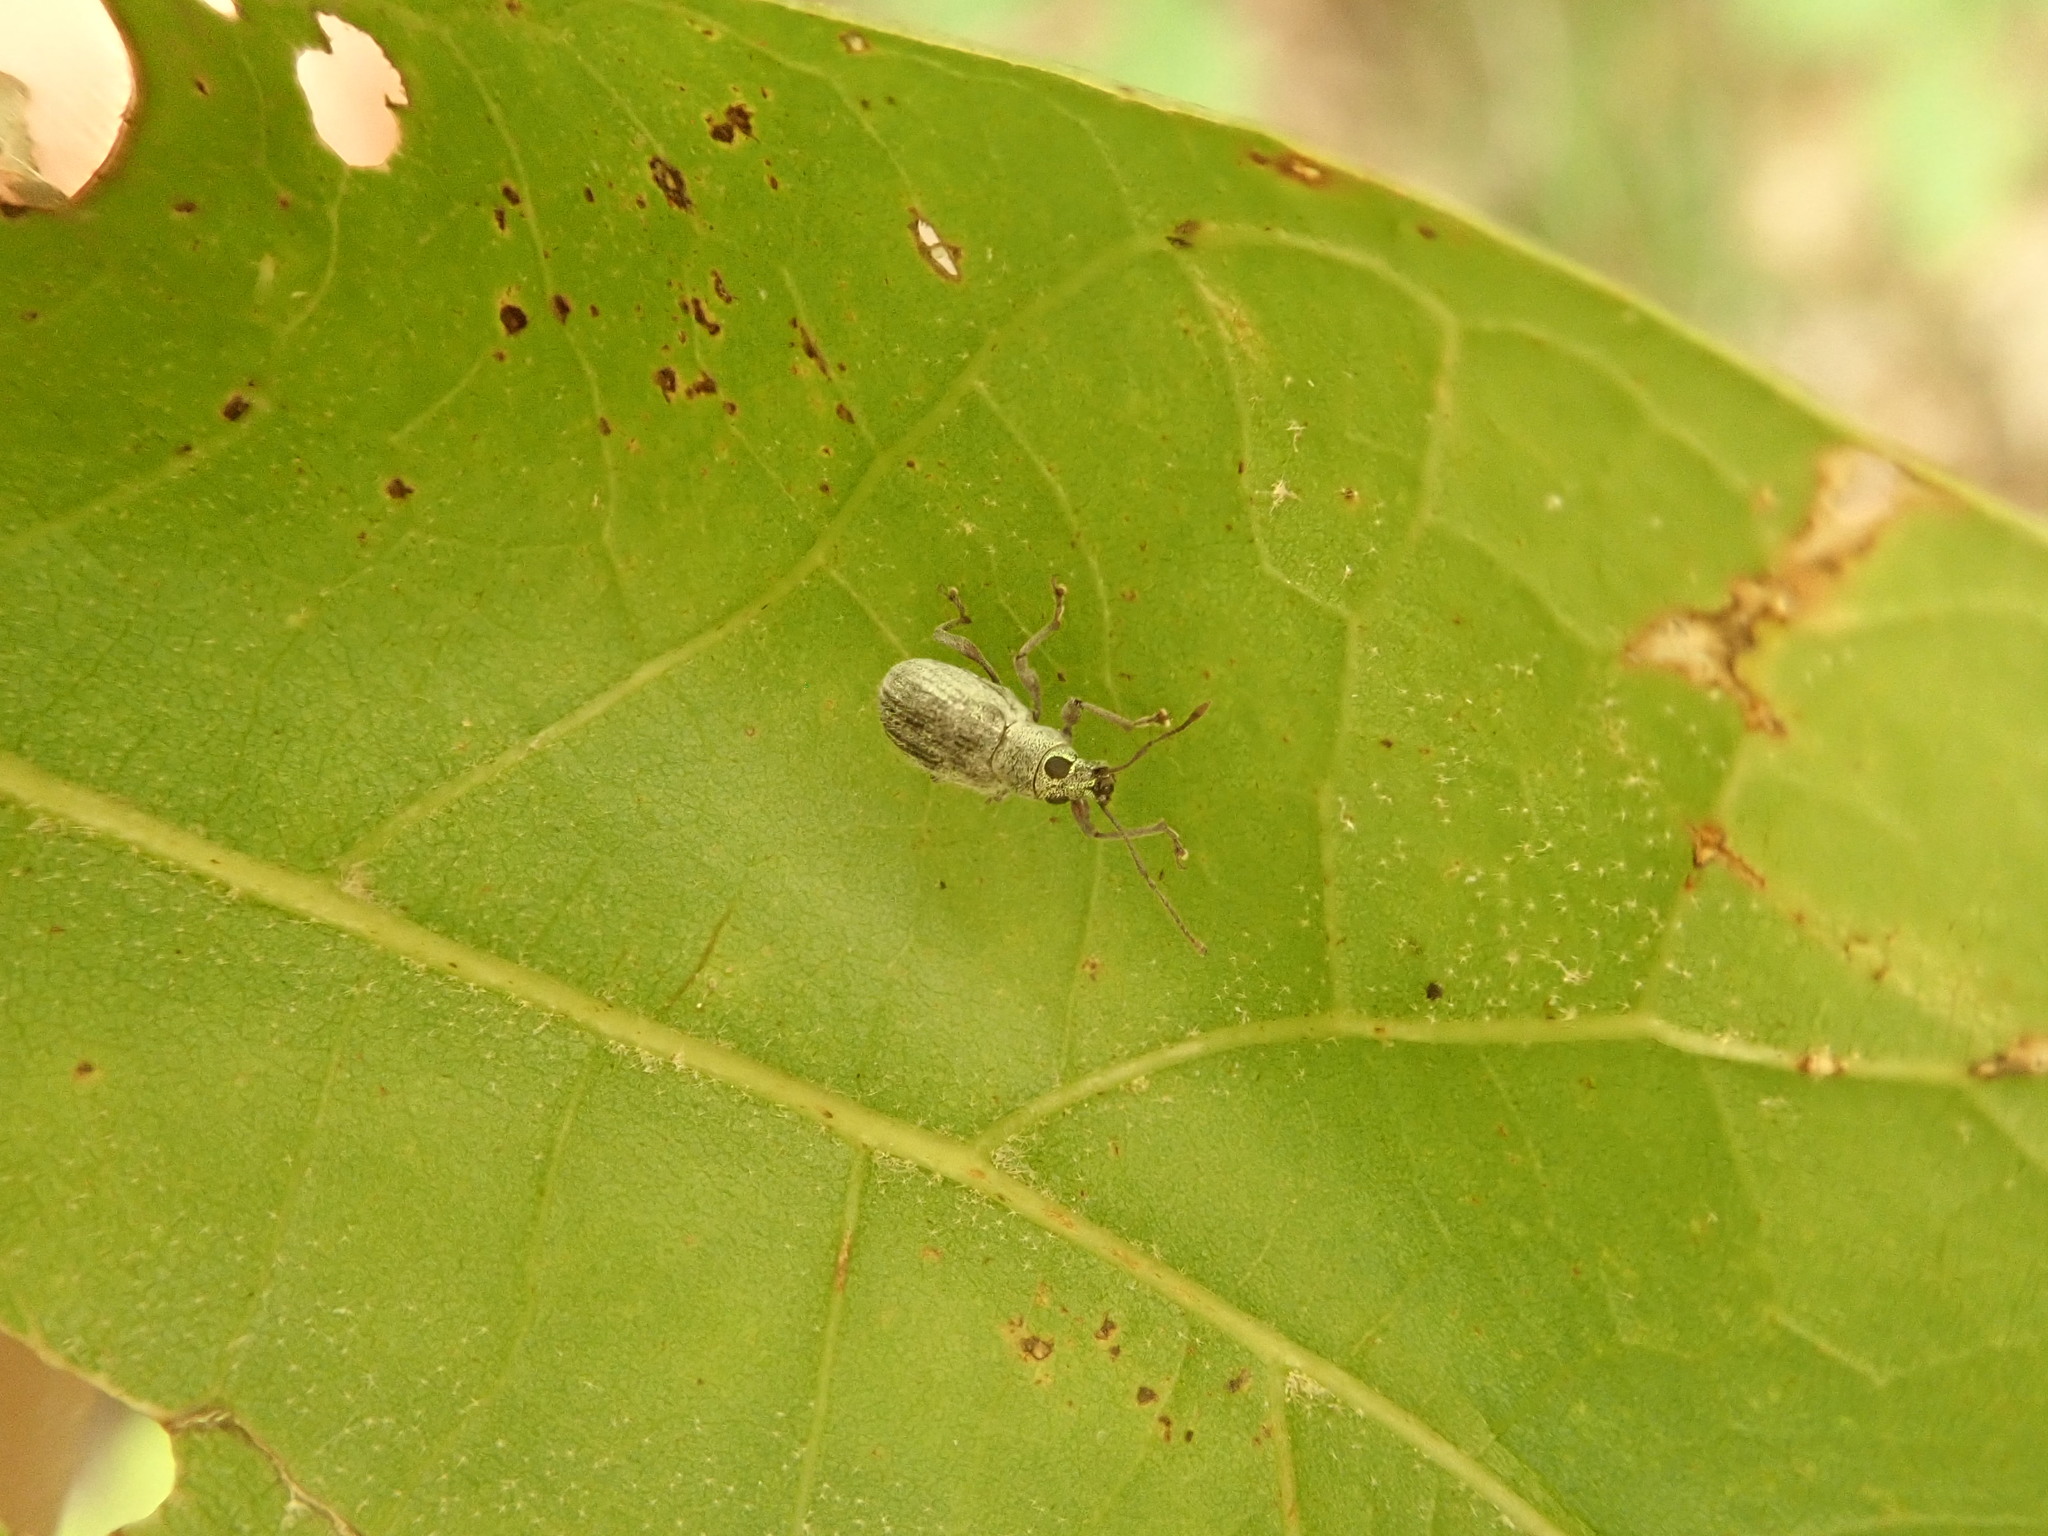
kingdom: Animalia
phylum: Arthropoda
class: Insecta
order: Coleoptera
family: Curculionidae
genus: Cyrtepistomus
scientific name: Cyrtepistomus castaneus
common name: Weevil
